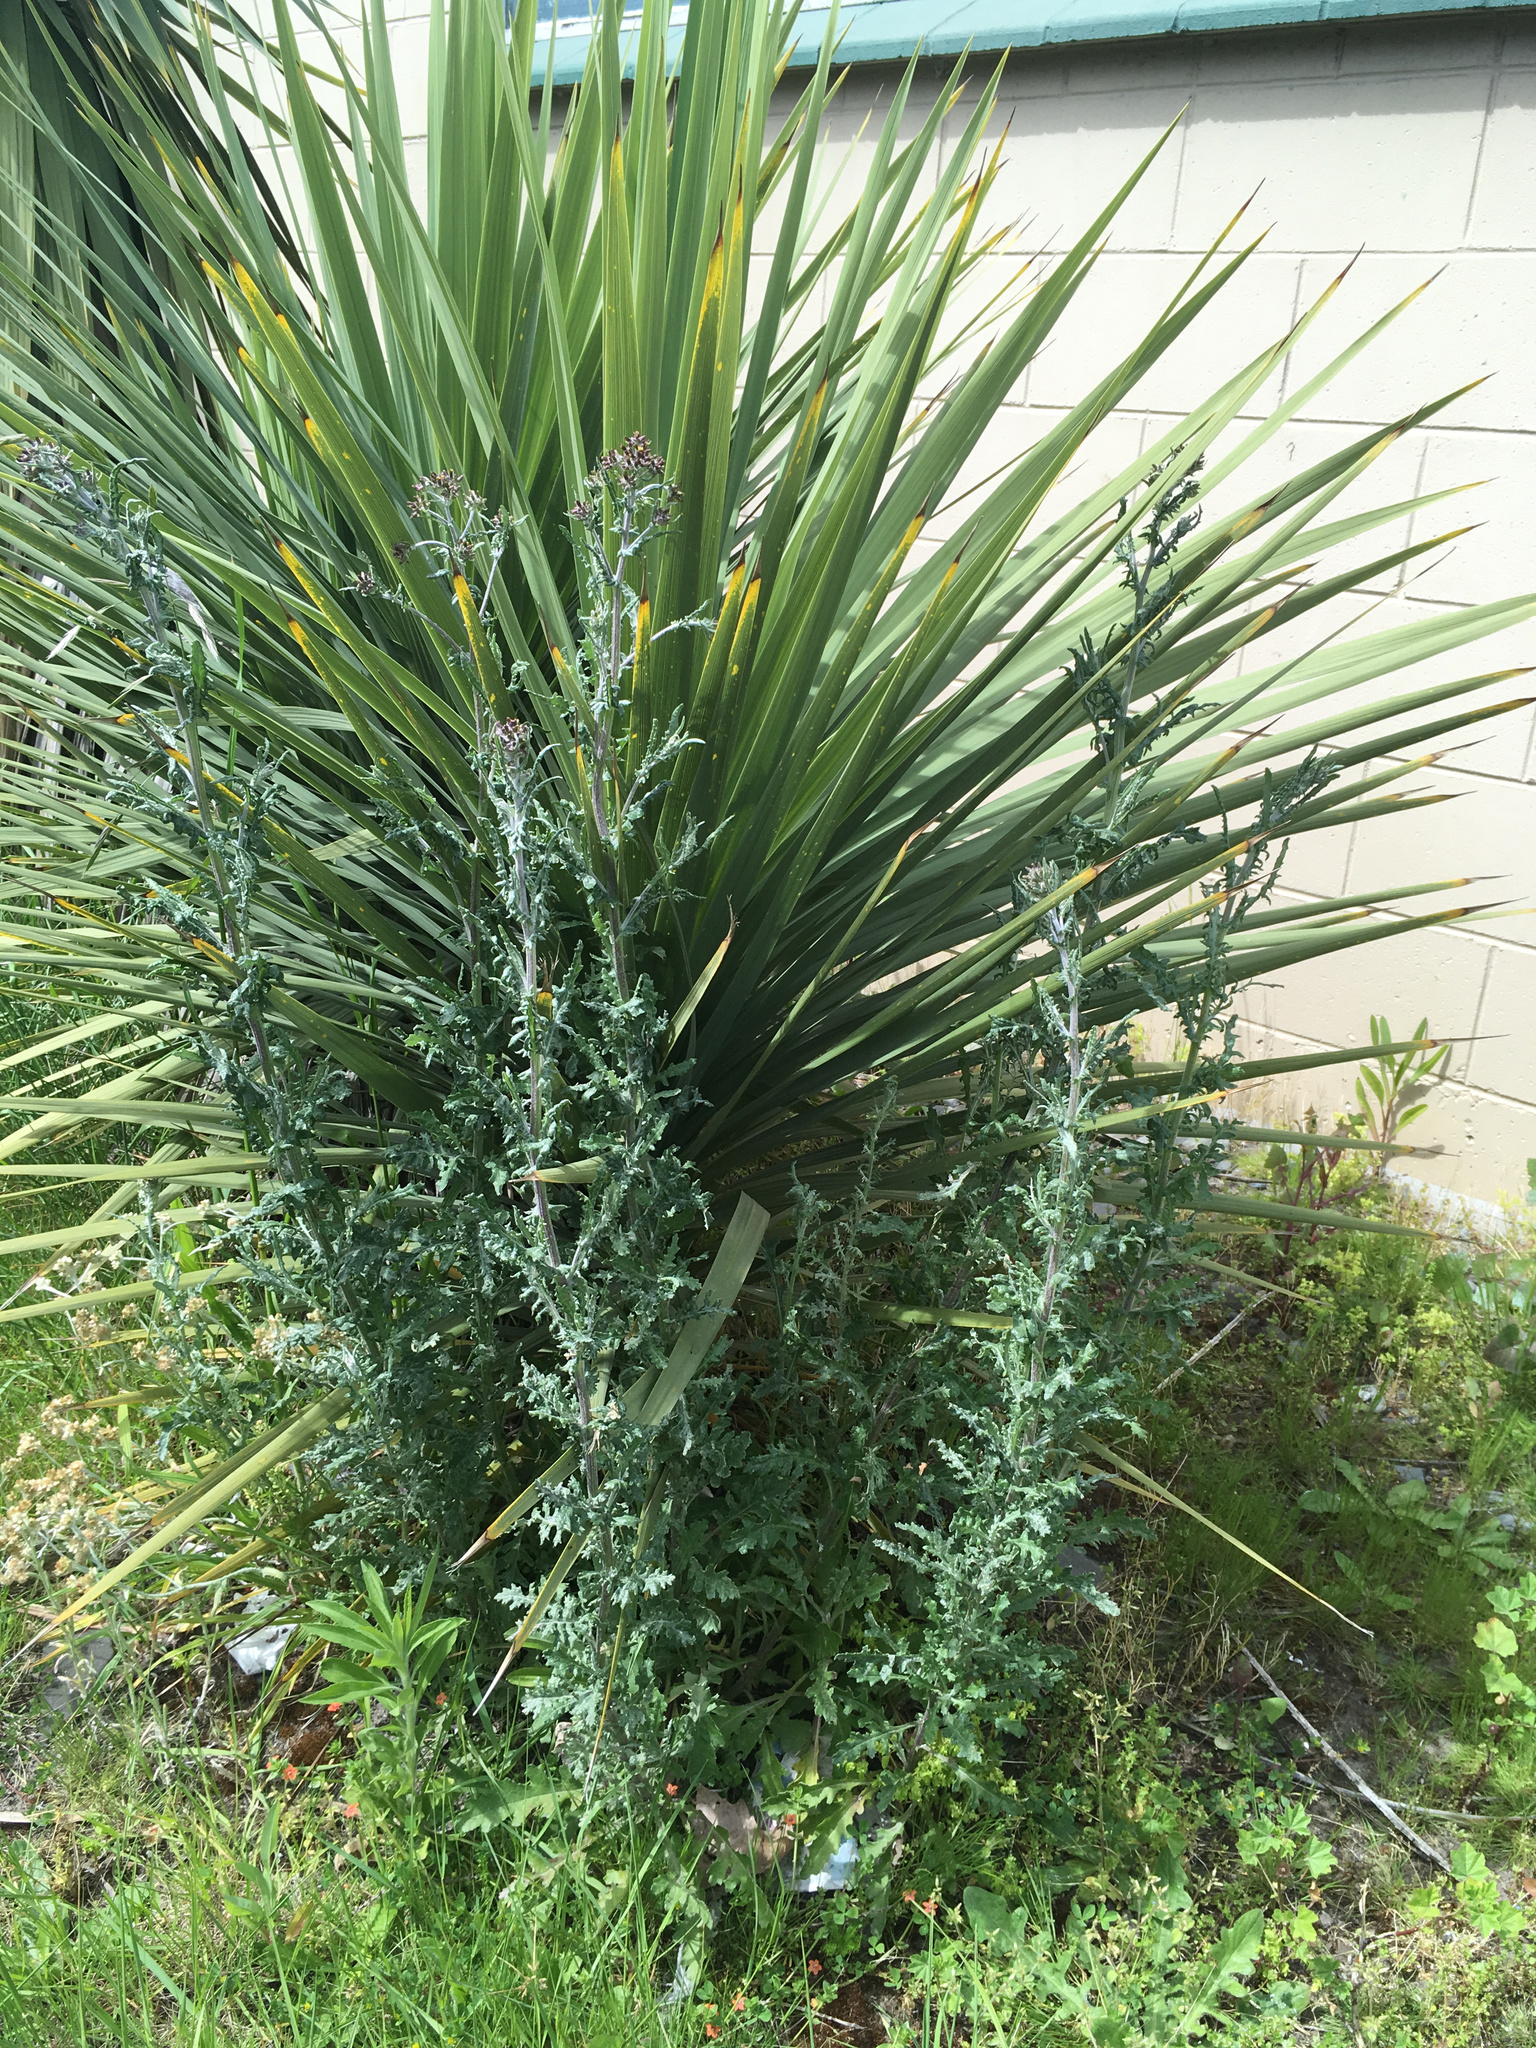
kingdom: Plantae
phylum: Tracheophyta
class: Magnoliopsida
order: Asterales
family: Asteraceae
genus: Senecio
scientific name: Senecio glomeratus
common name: Cutleaf burnweed
